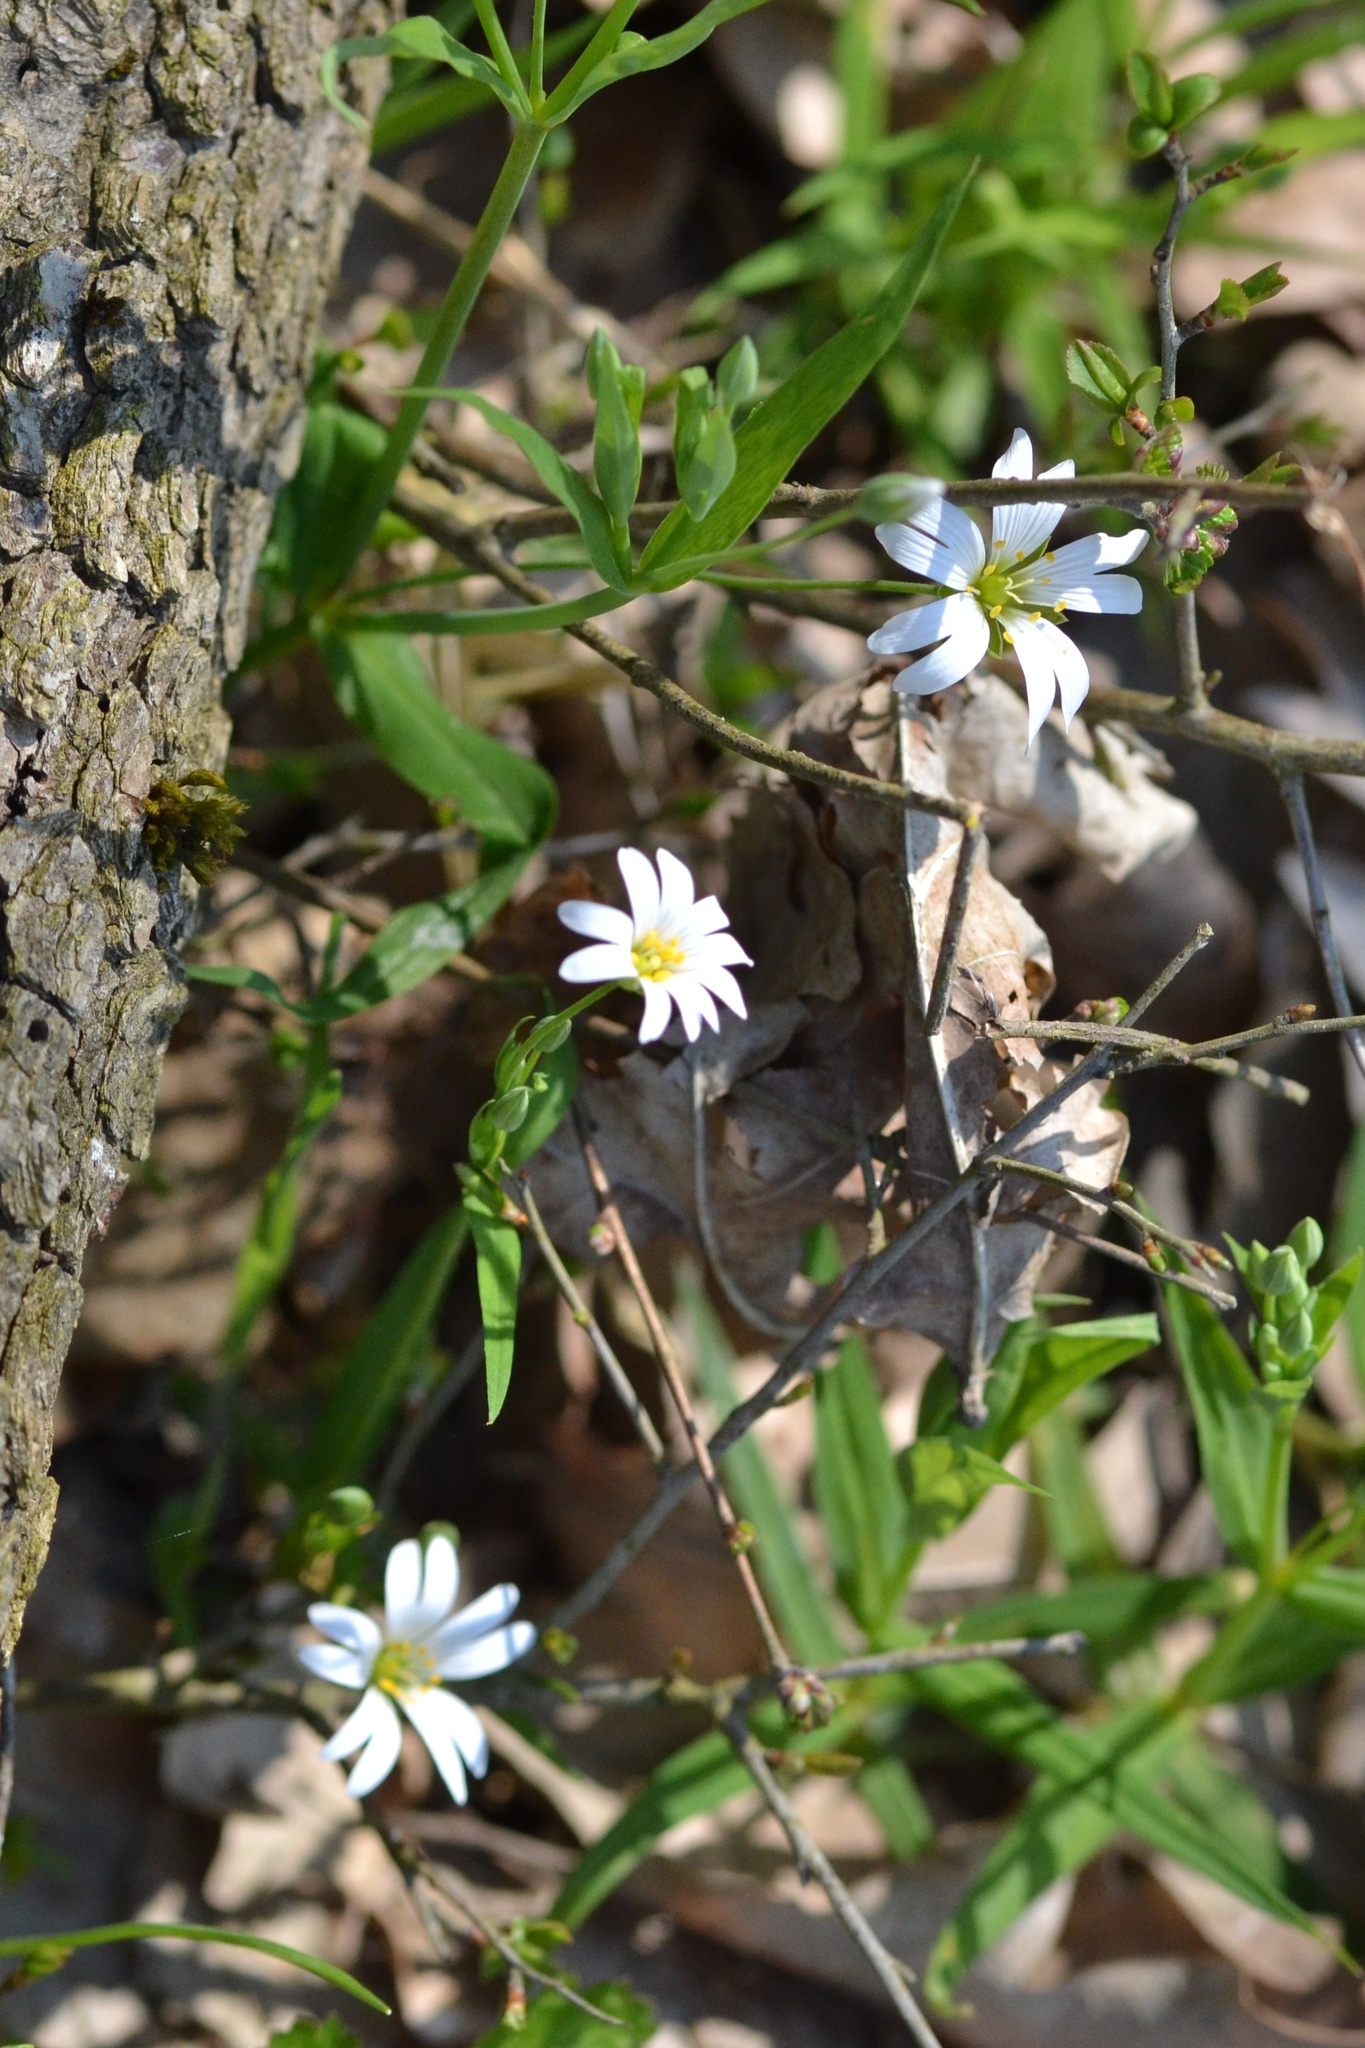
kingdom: Plantae
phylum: Tracheophyta
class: Magnoliopsida
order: Caryophyllales
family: Caryophyllaceae
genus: Rabelera
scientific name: Rabelera holostea
